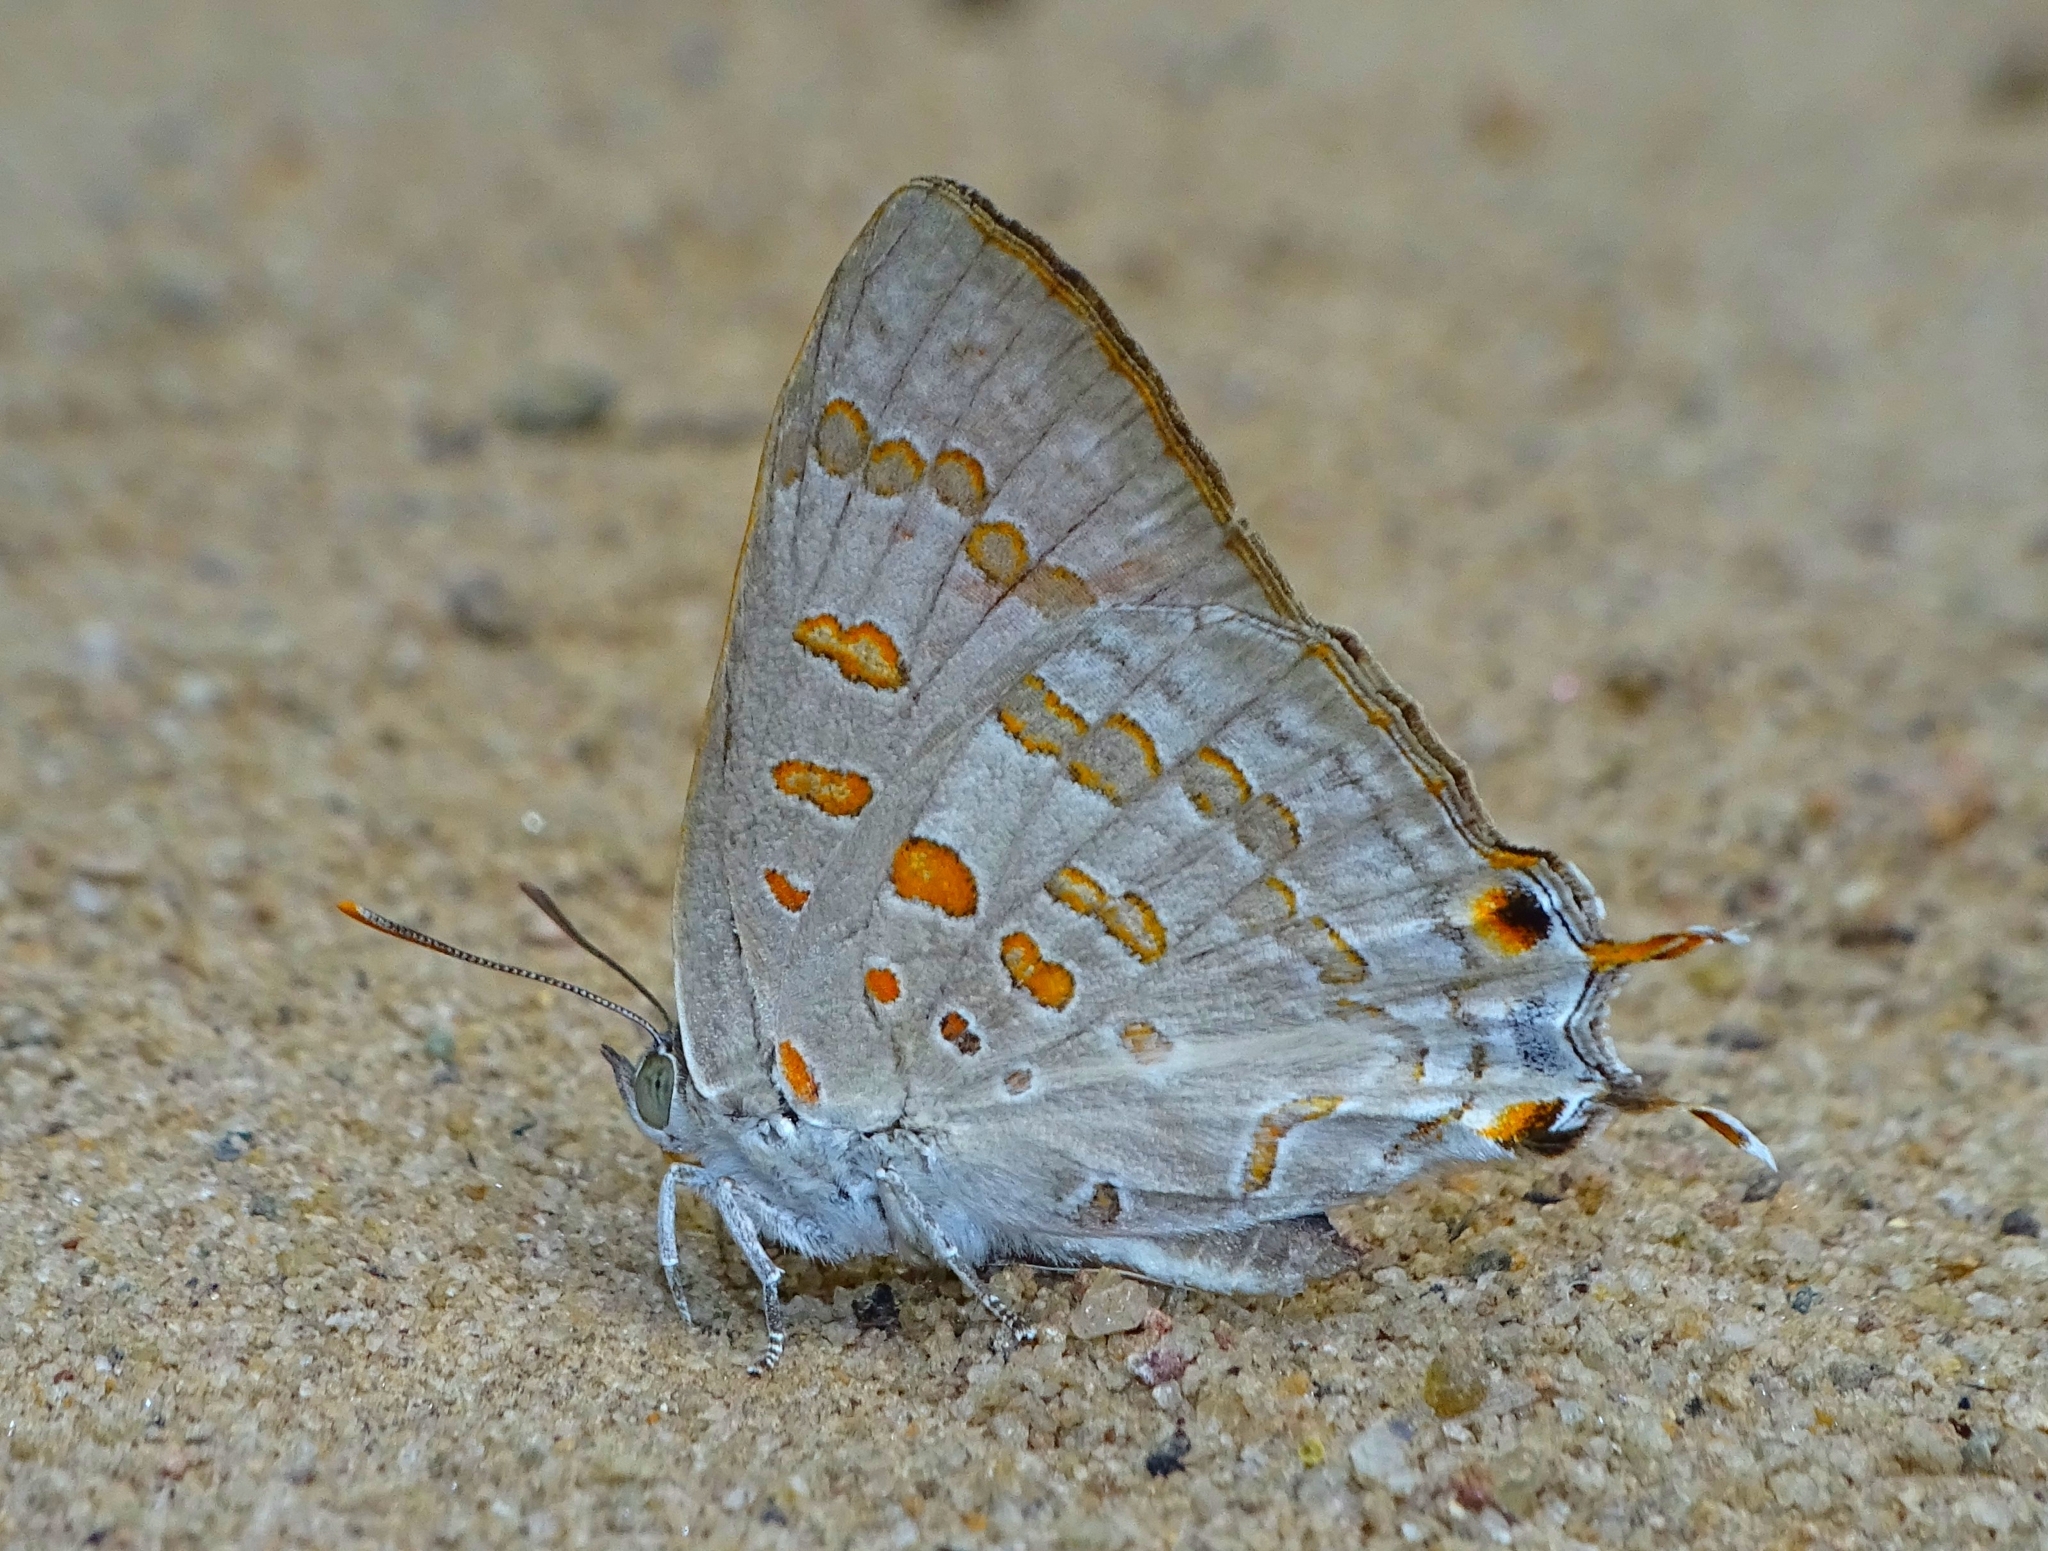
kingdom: Animalia
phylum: Arthropoda
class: Insecta
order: Lepidoptera
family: Lycaenidae
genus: Zesius
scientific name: Zesius chrysomallus
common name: Redspot
